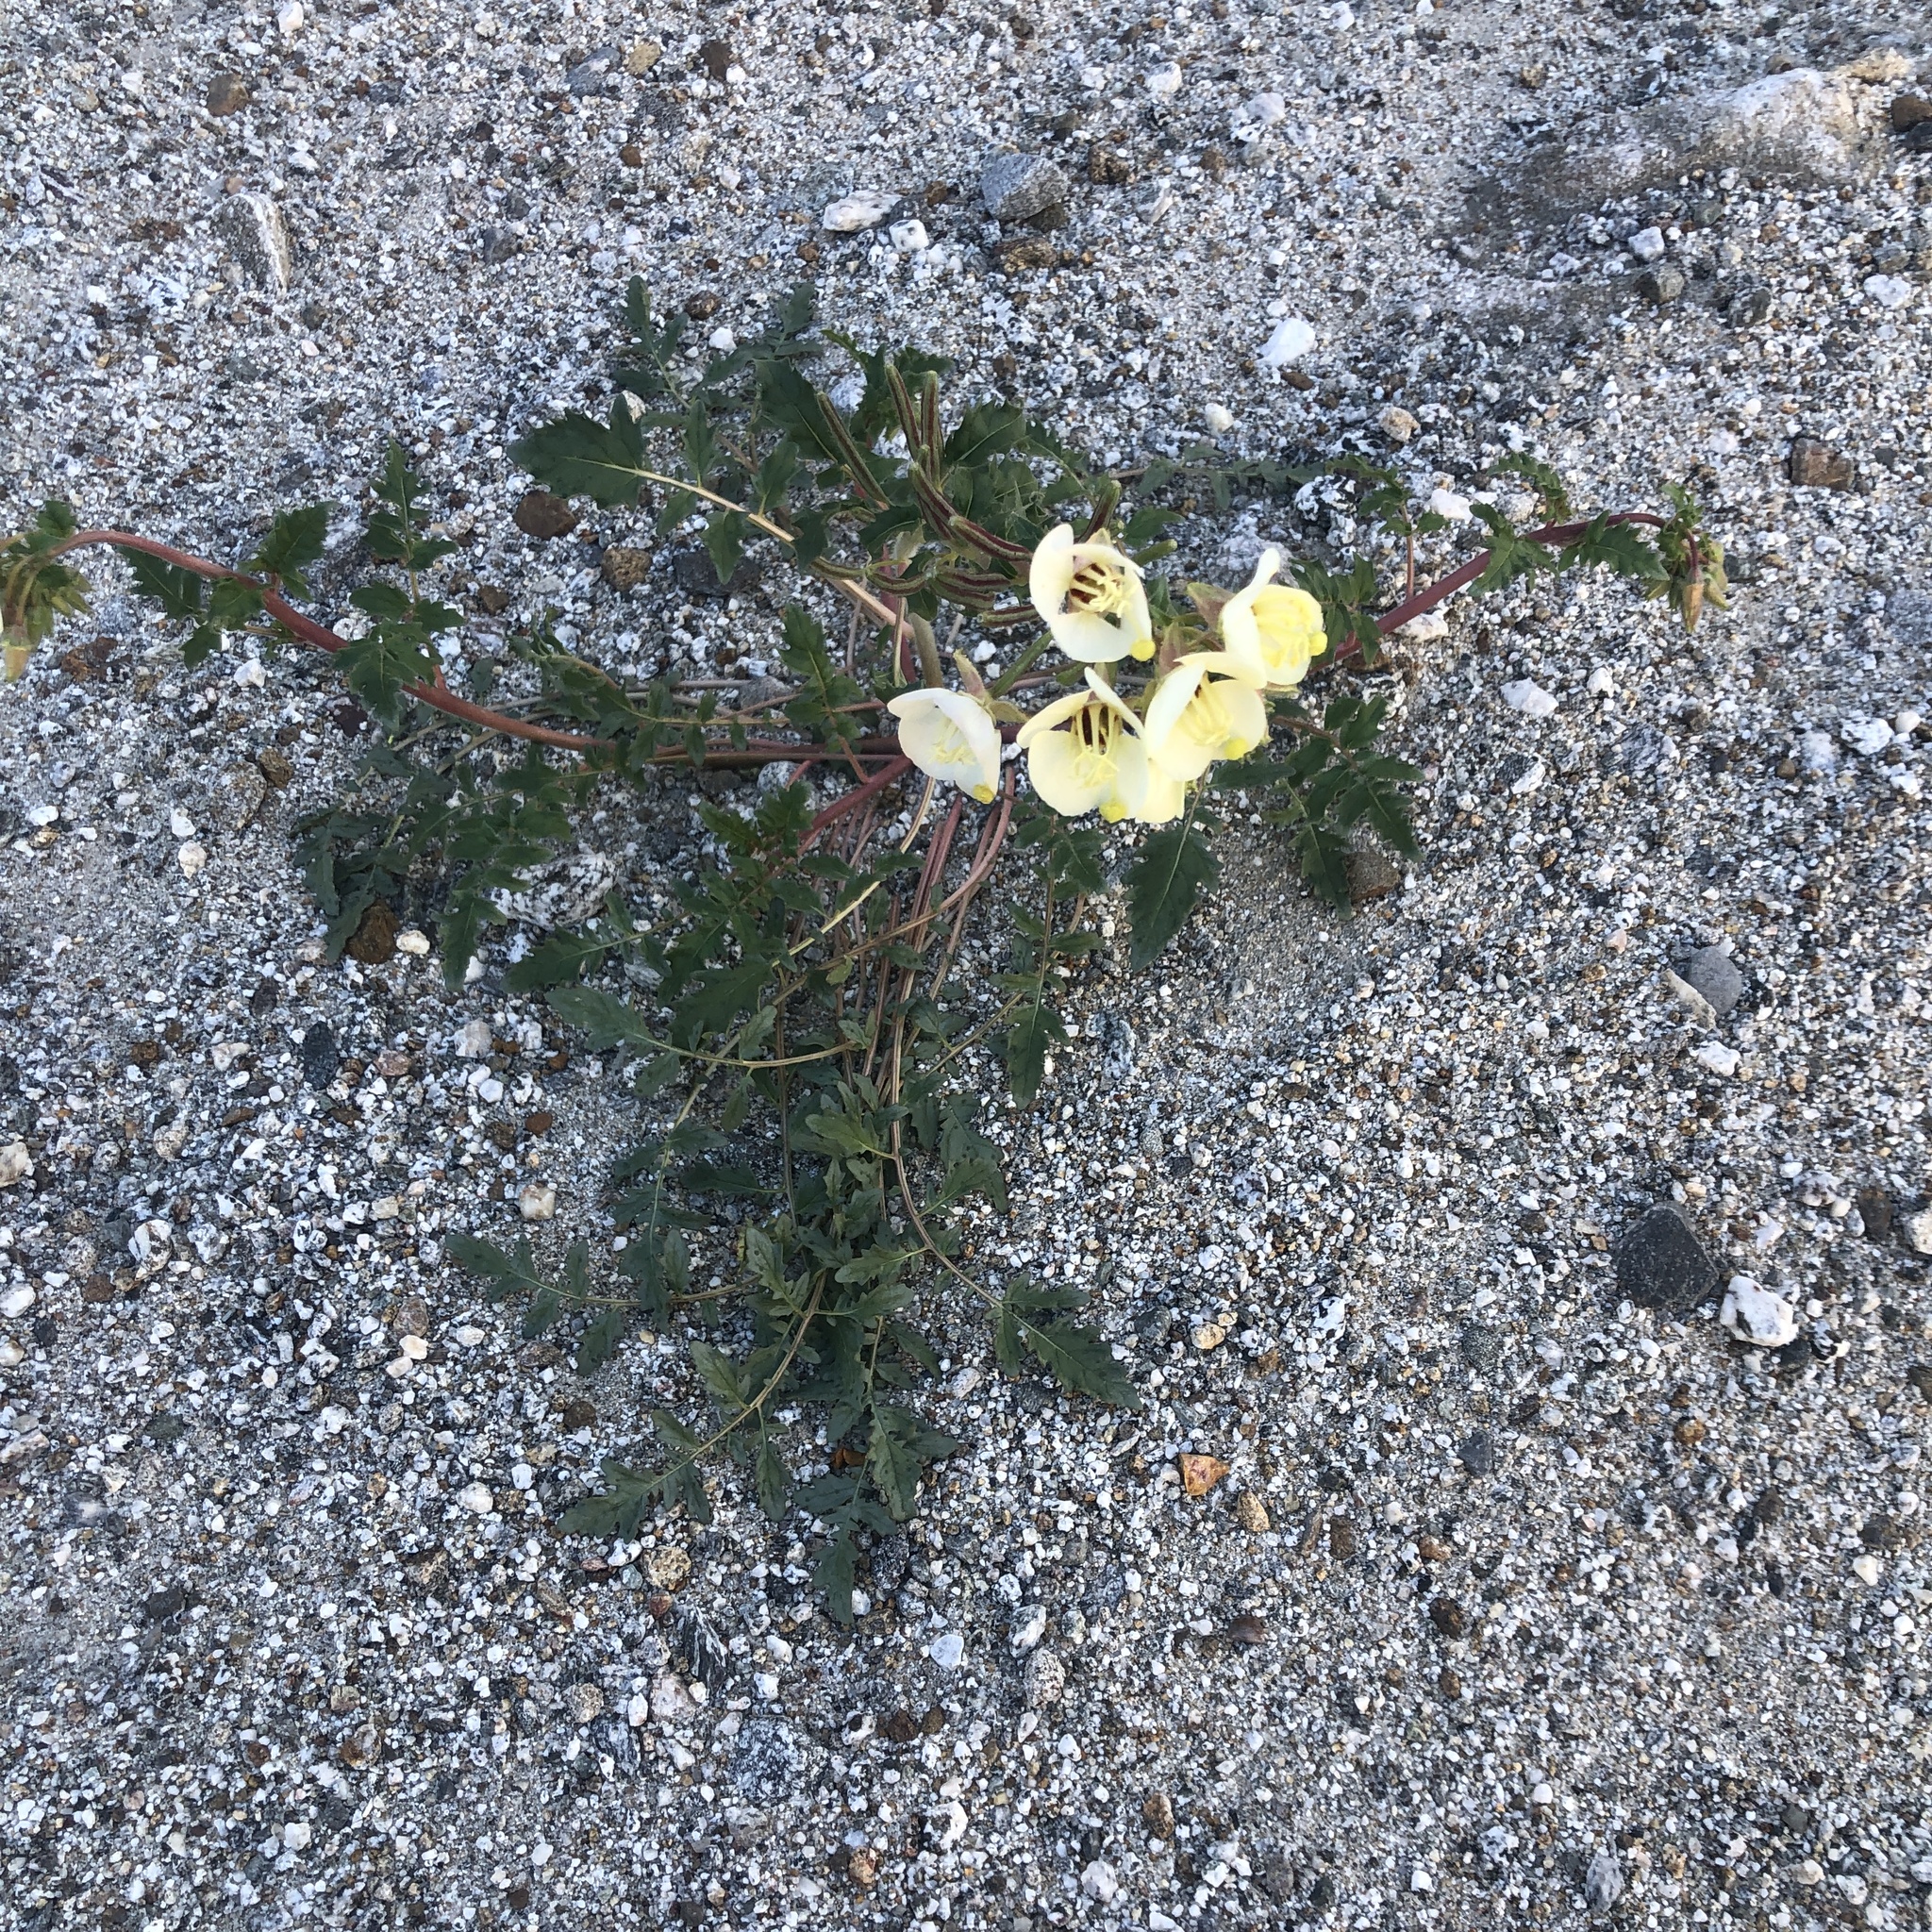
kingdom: Plantae
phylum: Tracheophyta
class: Magnoliopsida
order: Myrtales
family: Onagraceae
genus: Chylismia
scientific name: Chylismia claviformis
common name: Browneyes
